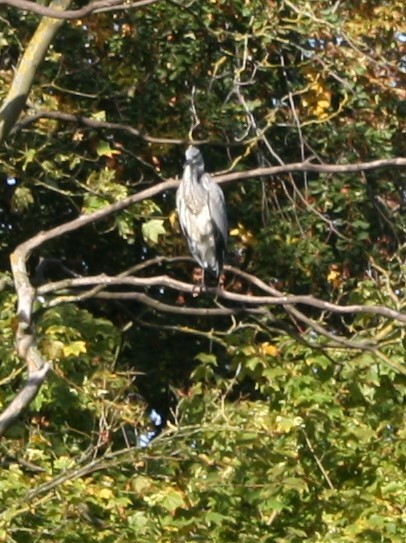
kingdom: Animalia
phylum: Chordata
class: Aves
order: Pelecaniformes
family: Ardeidae
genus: Ardea
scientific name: Ardea cinerea
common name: Grey heron
